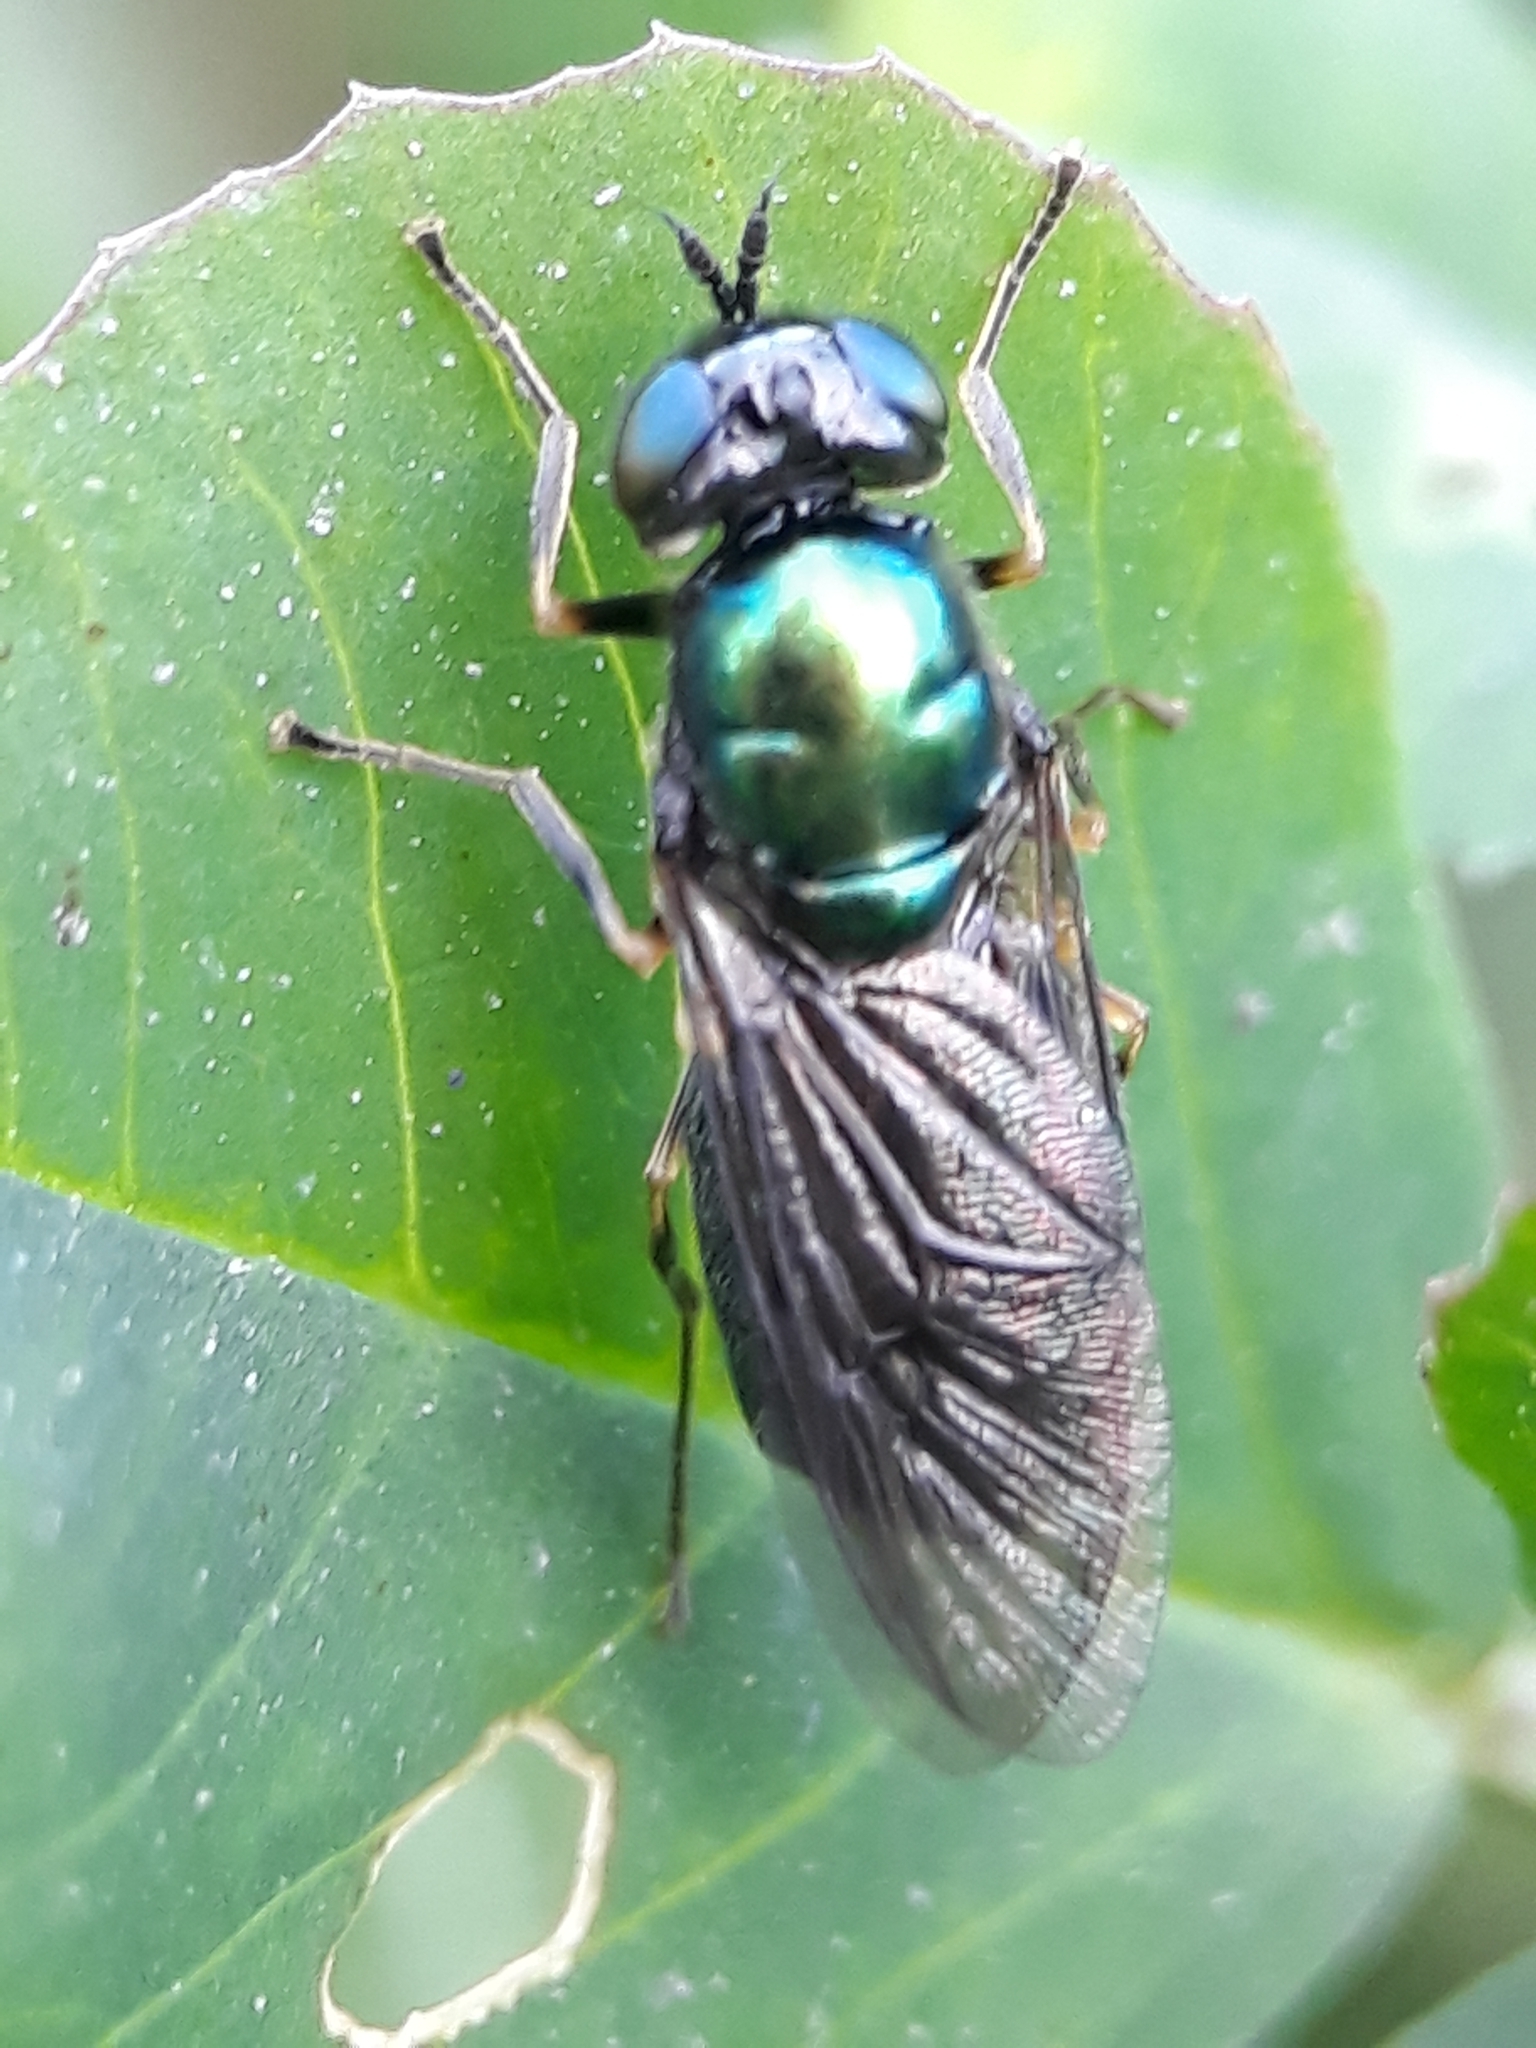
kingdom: Animalia
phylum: Arthropoda
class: Insecta
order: Diptera
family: Stratiomyidae
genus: Chloromyia
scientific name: Chloromyia formosa
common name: Soldier fly
